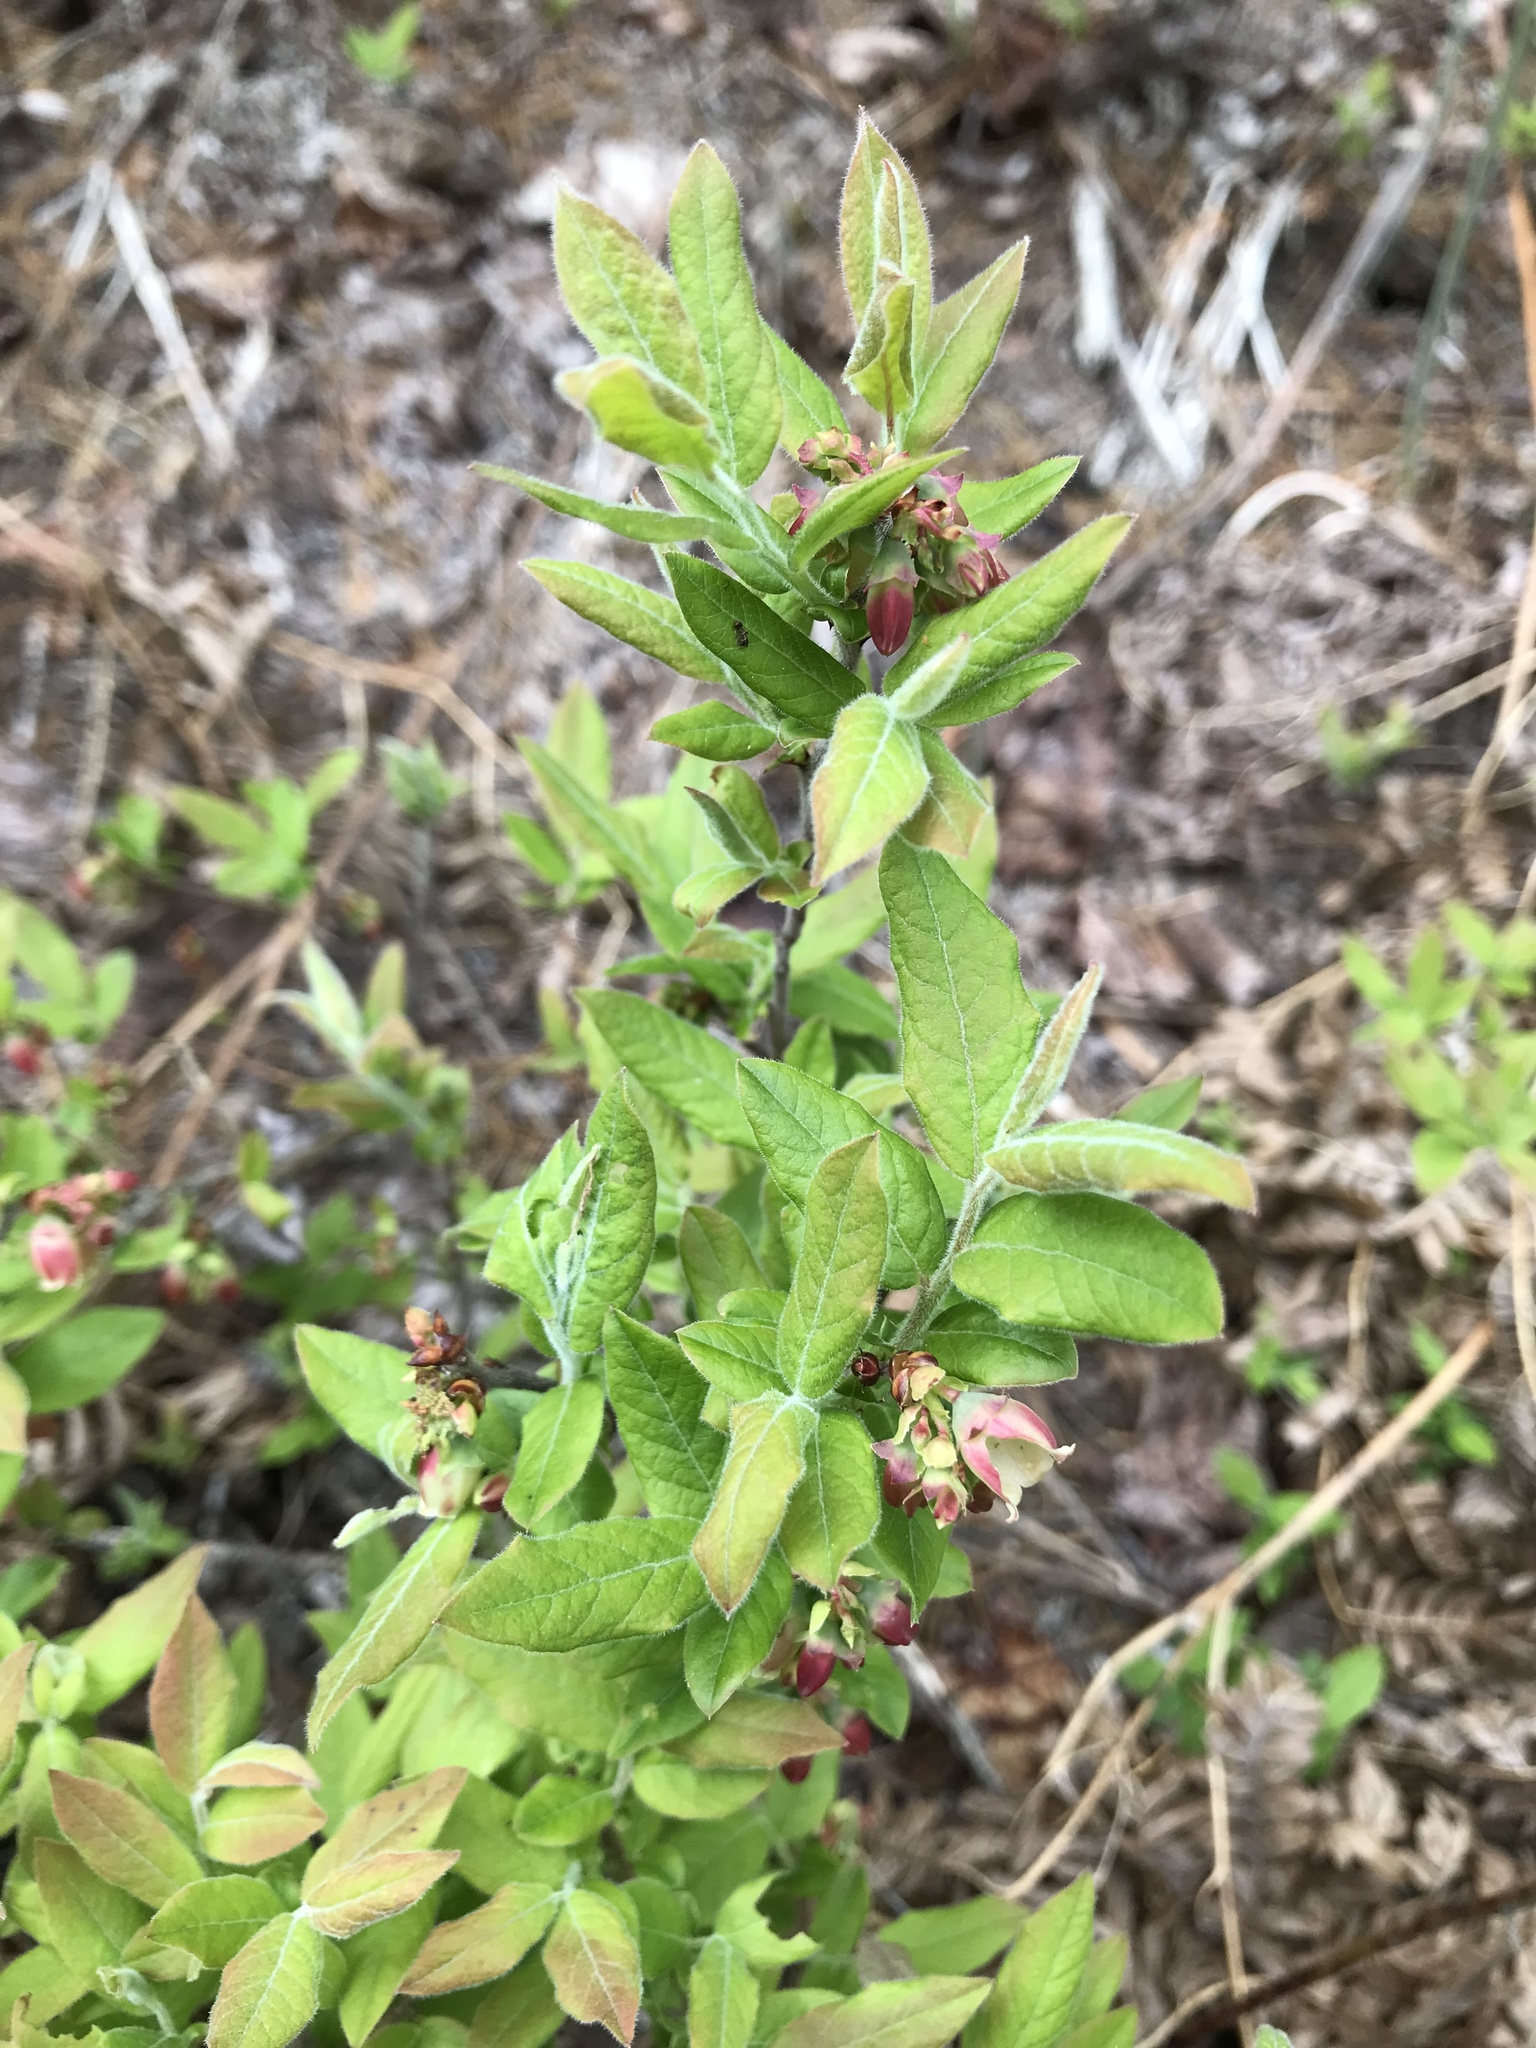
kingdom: Plantae
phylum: Tracheophyta
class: Magnoliopsida
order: Ericales
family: Ericaceae
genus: Vaccinium
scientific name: Vaccinium myrtilloides
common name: Canada blueberry
